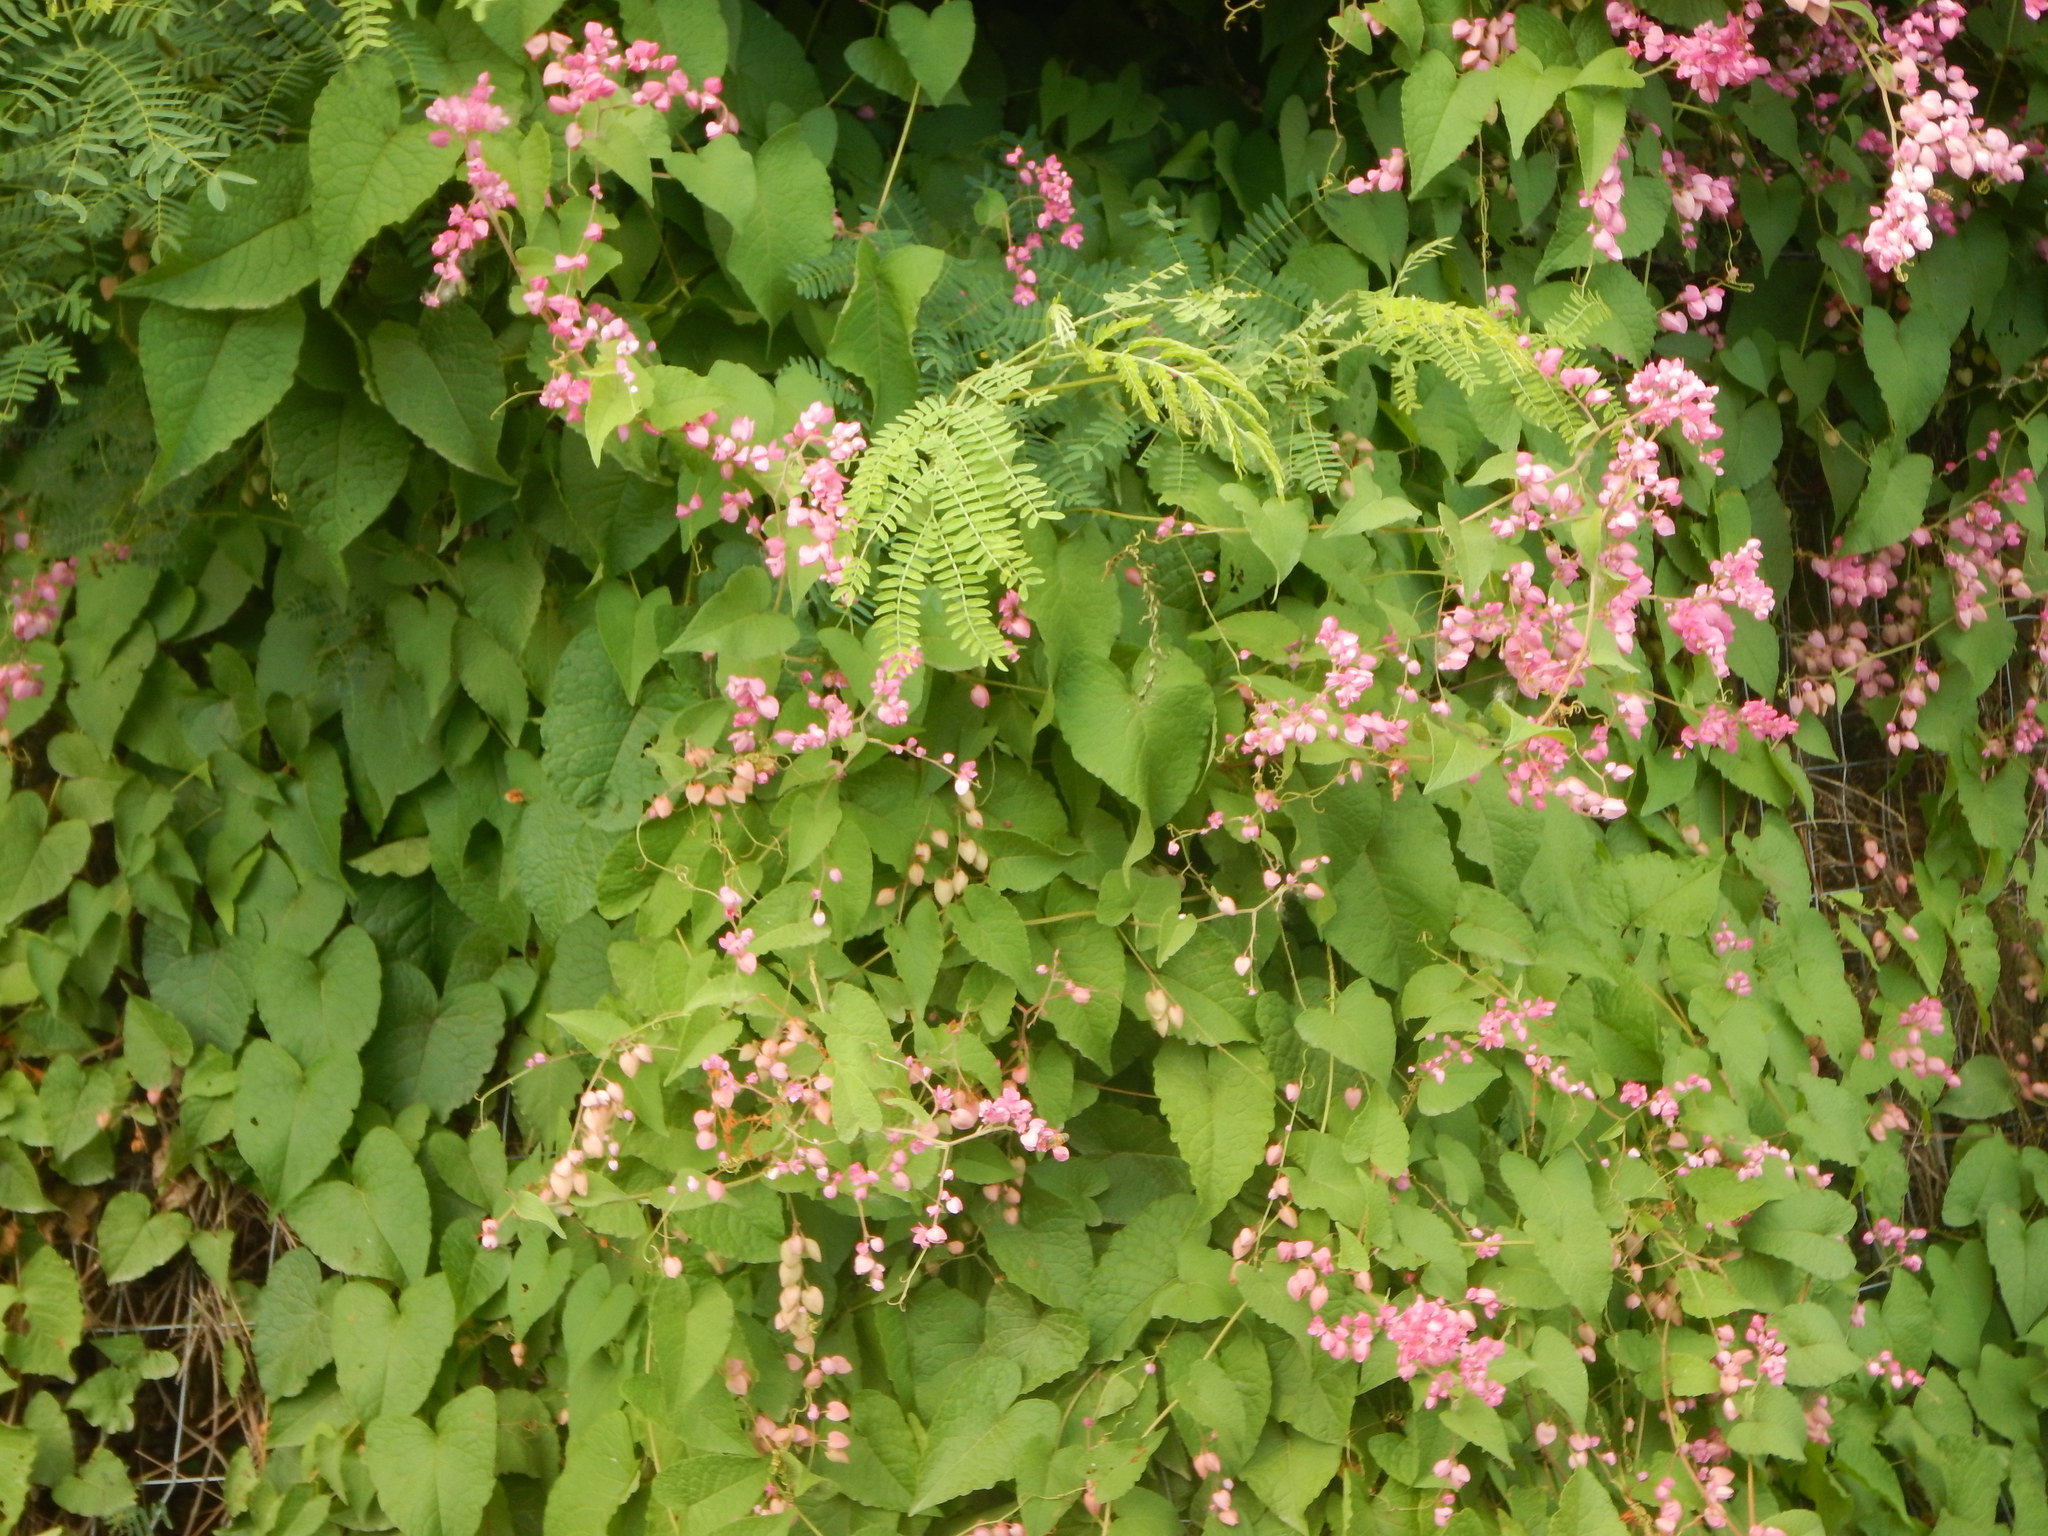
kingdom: Plantae
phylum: Tracheophyta
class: Magnoliopsida
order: Caryophyllales
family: Polygonaceae
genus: Antigonon
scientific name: Antigonon leptopus
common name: Coral vine
